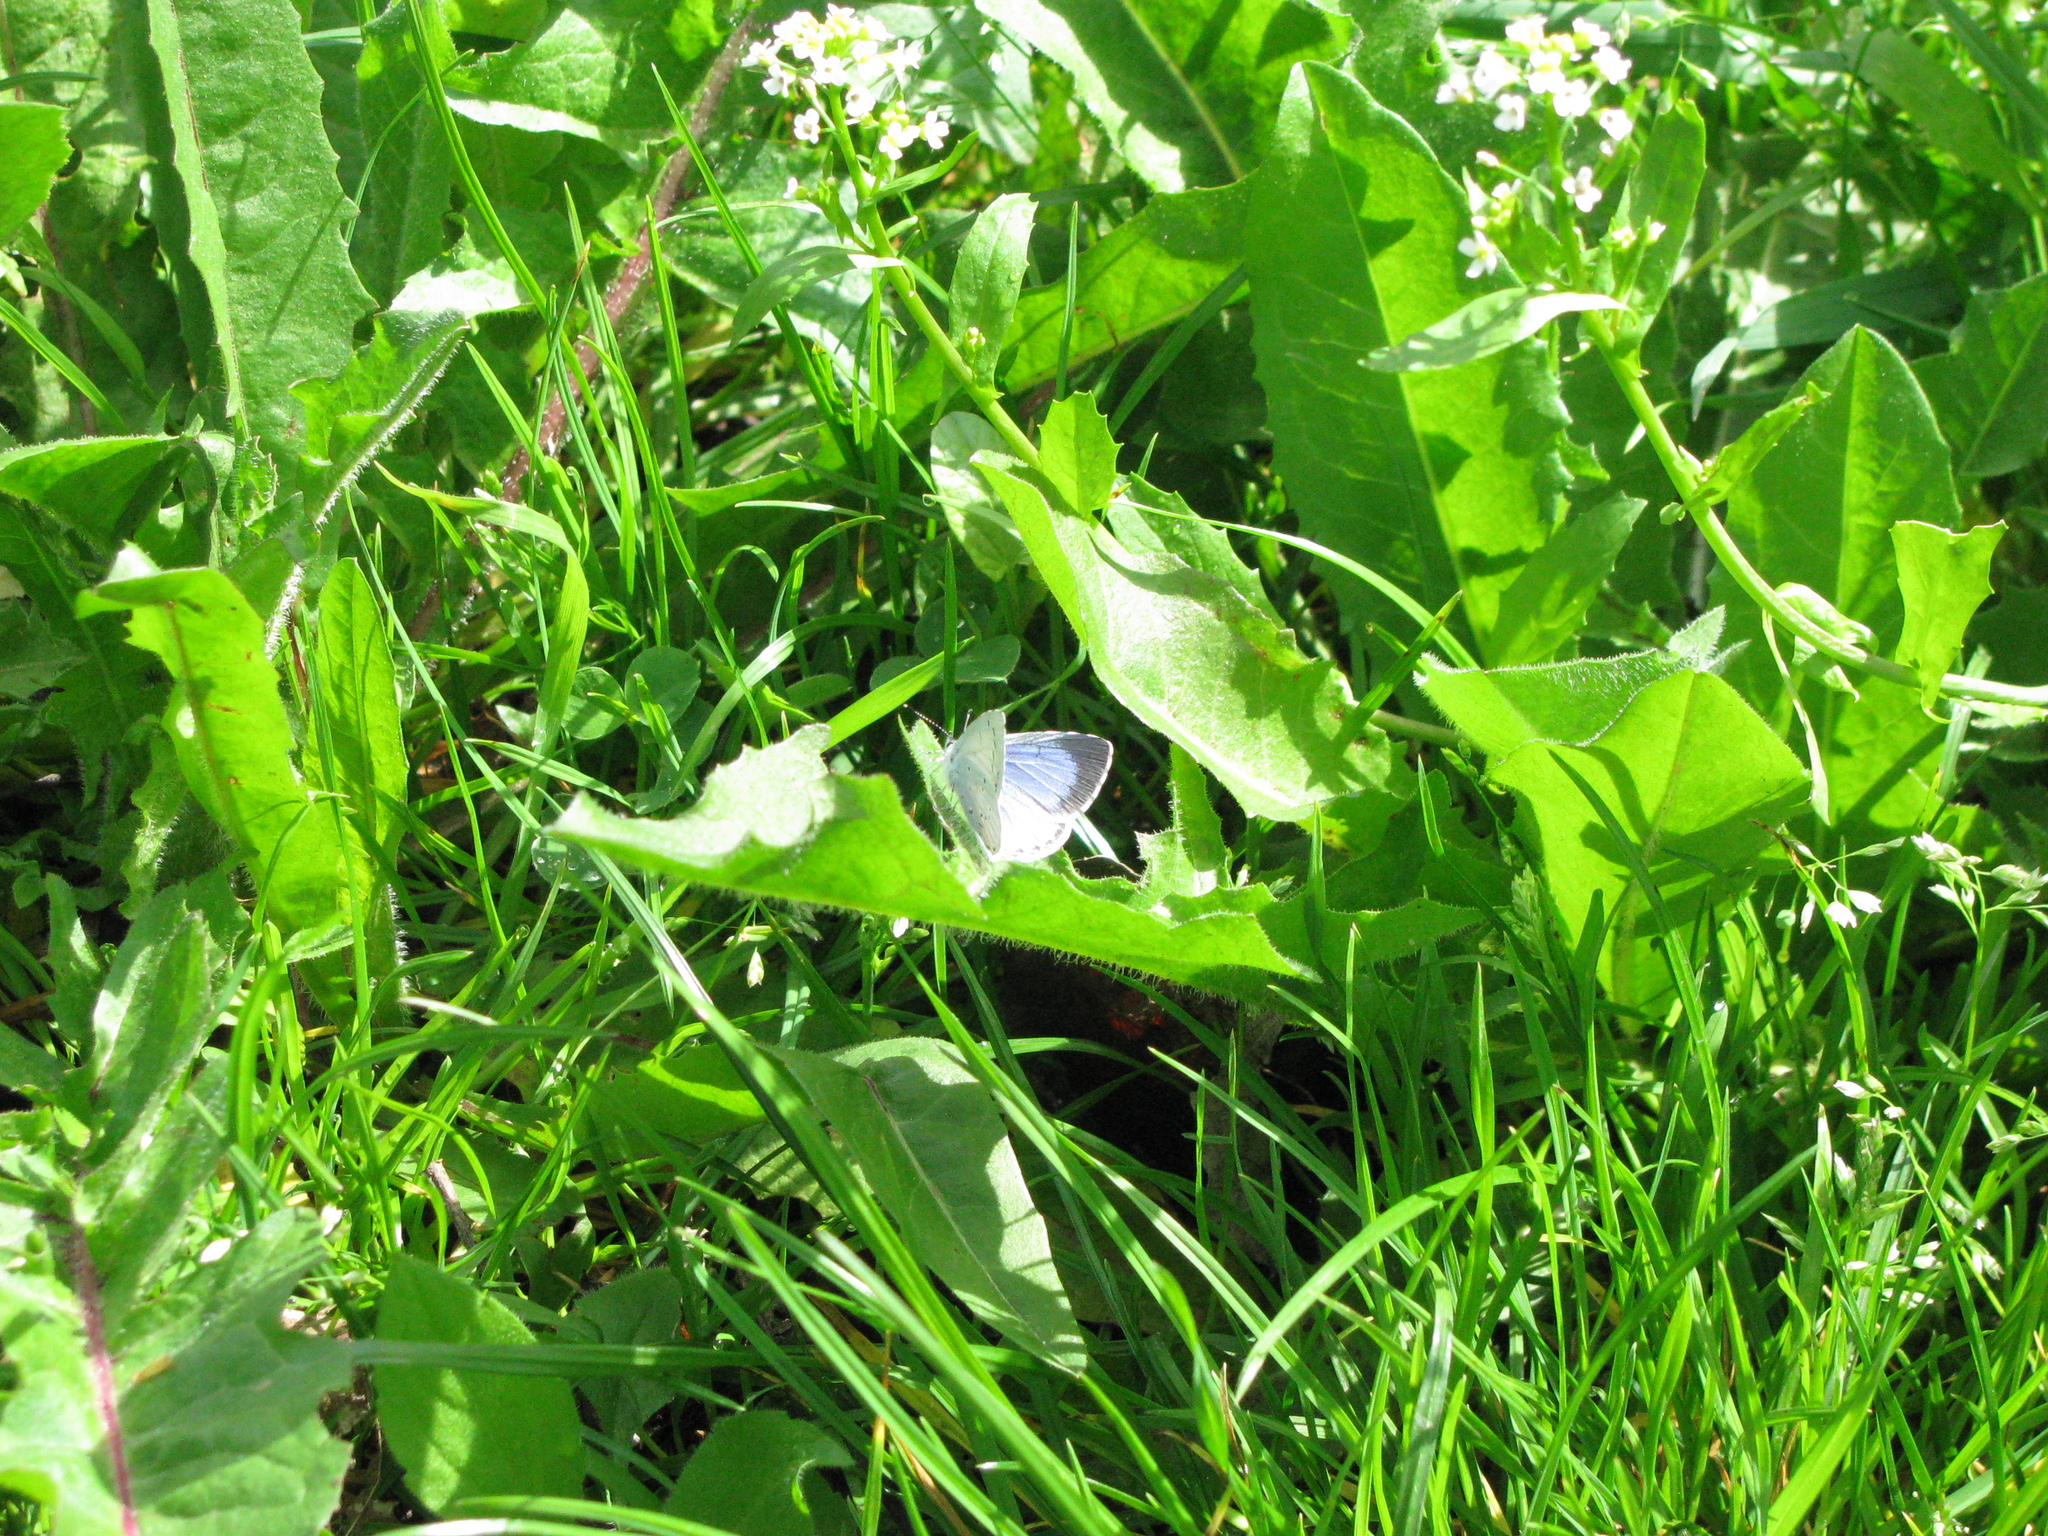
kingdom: Animalia
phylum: Arthropoda
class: Insecta
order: Lepidoptera
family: Lycaenidae
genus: Celastrina
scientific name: Celastrina argiolus
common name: Holly blue
